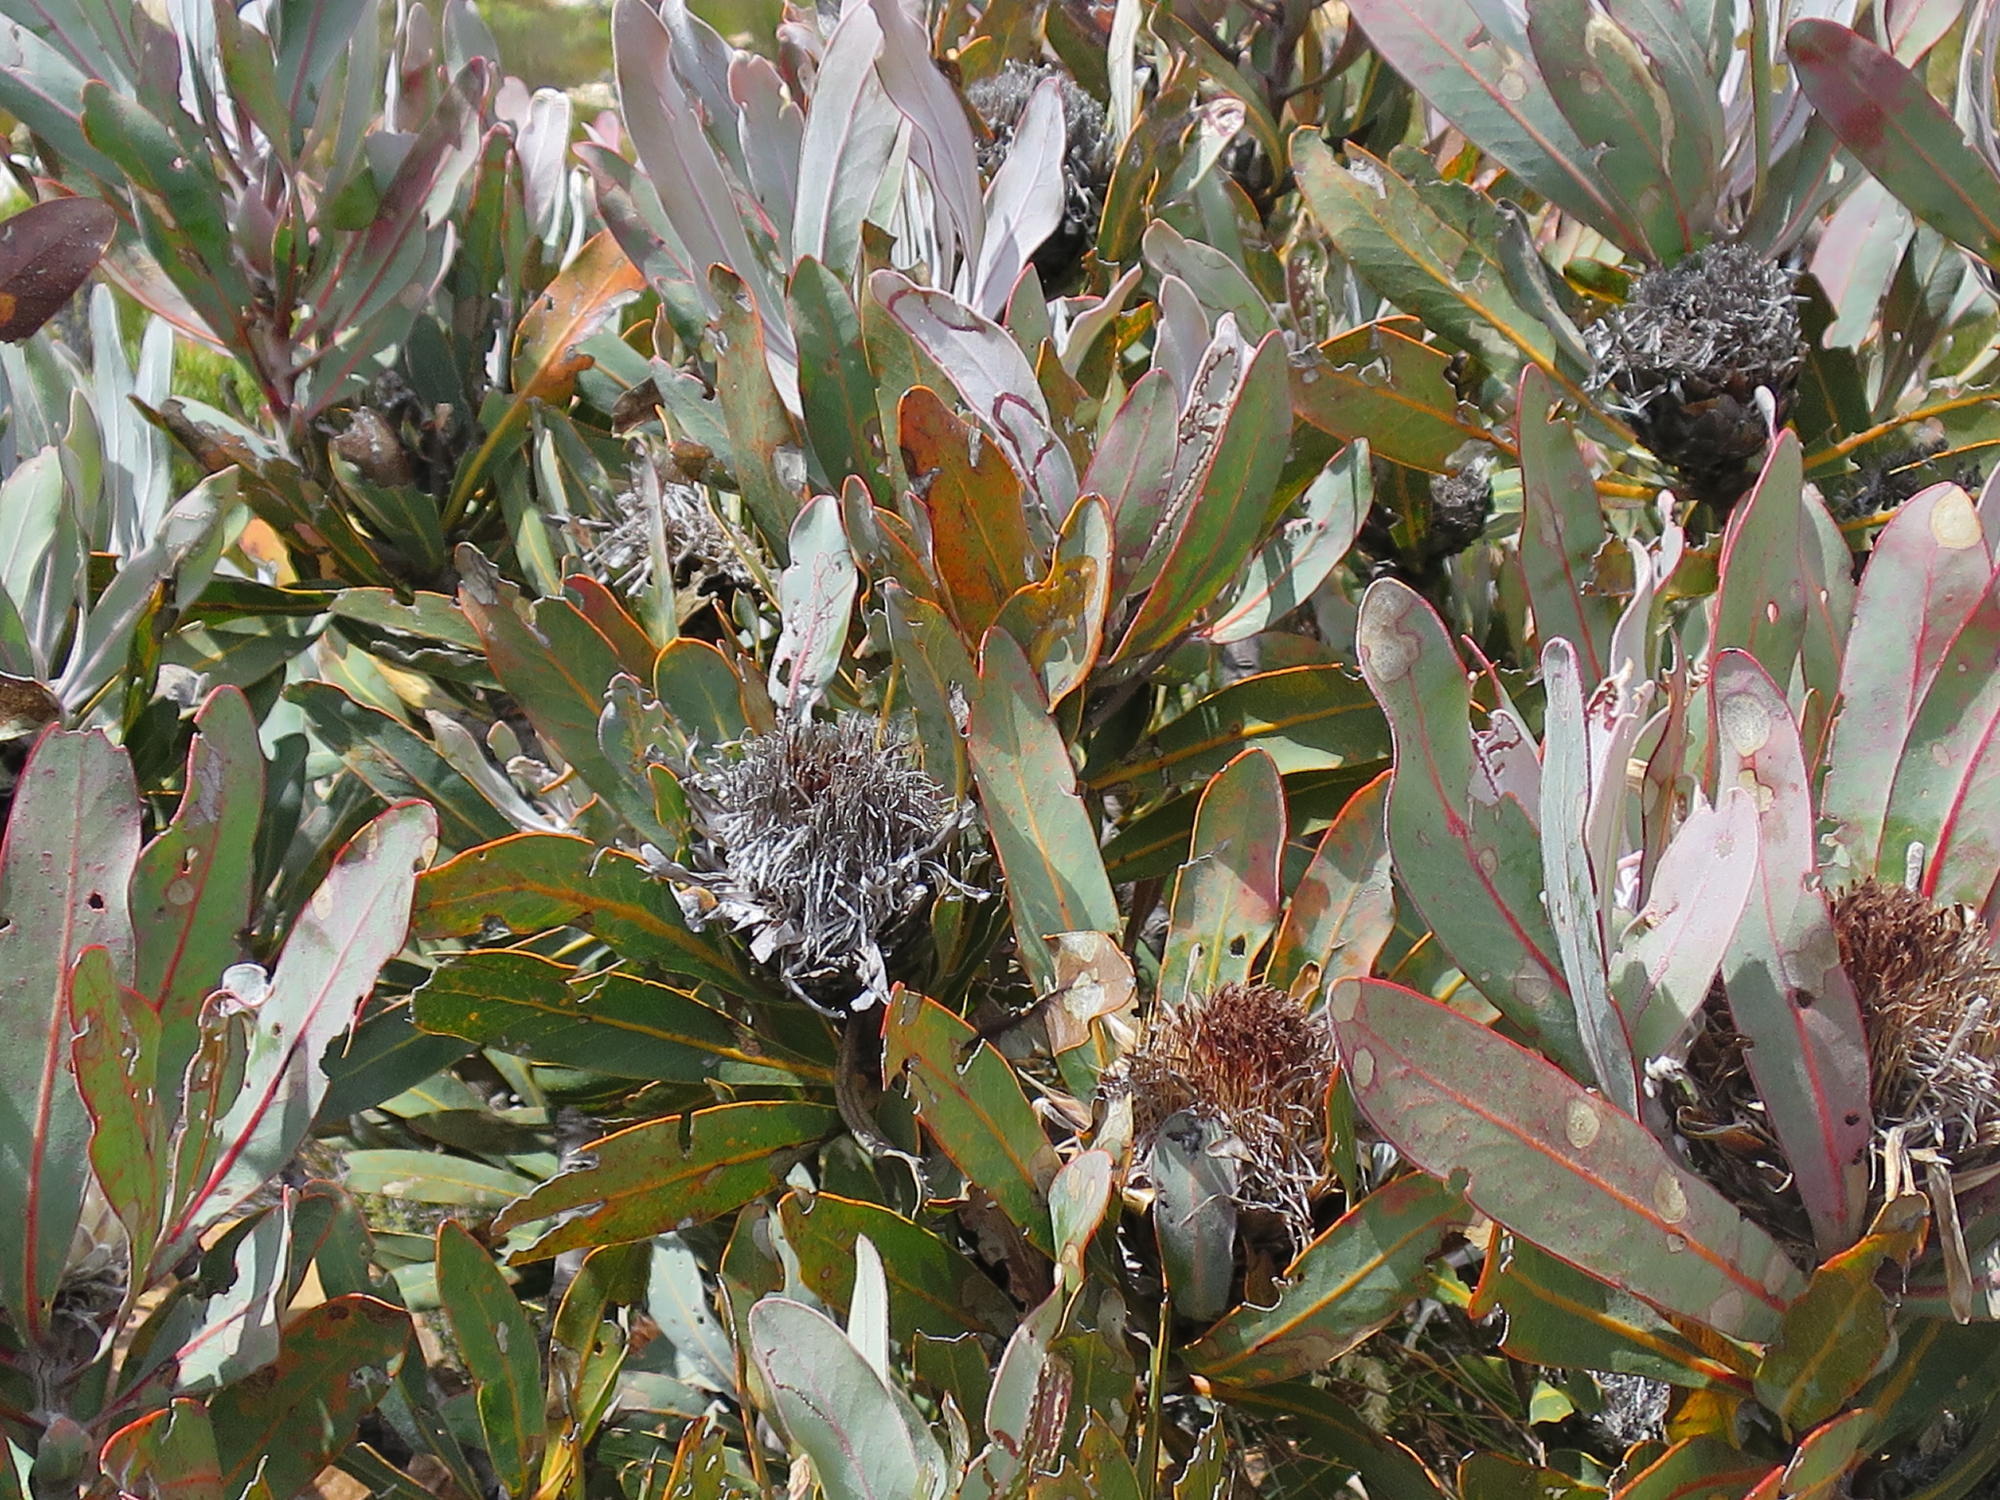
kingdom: Plantae
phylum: Tracheophyta
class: Magnoliopsida
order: Proteales
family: Proteaceae
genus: Protea
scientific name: Protea lorifolia
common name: Strap-leaved protea
